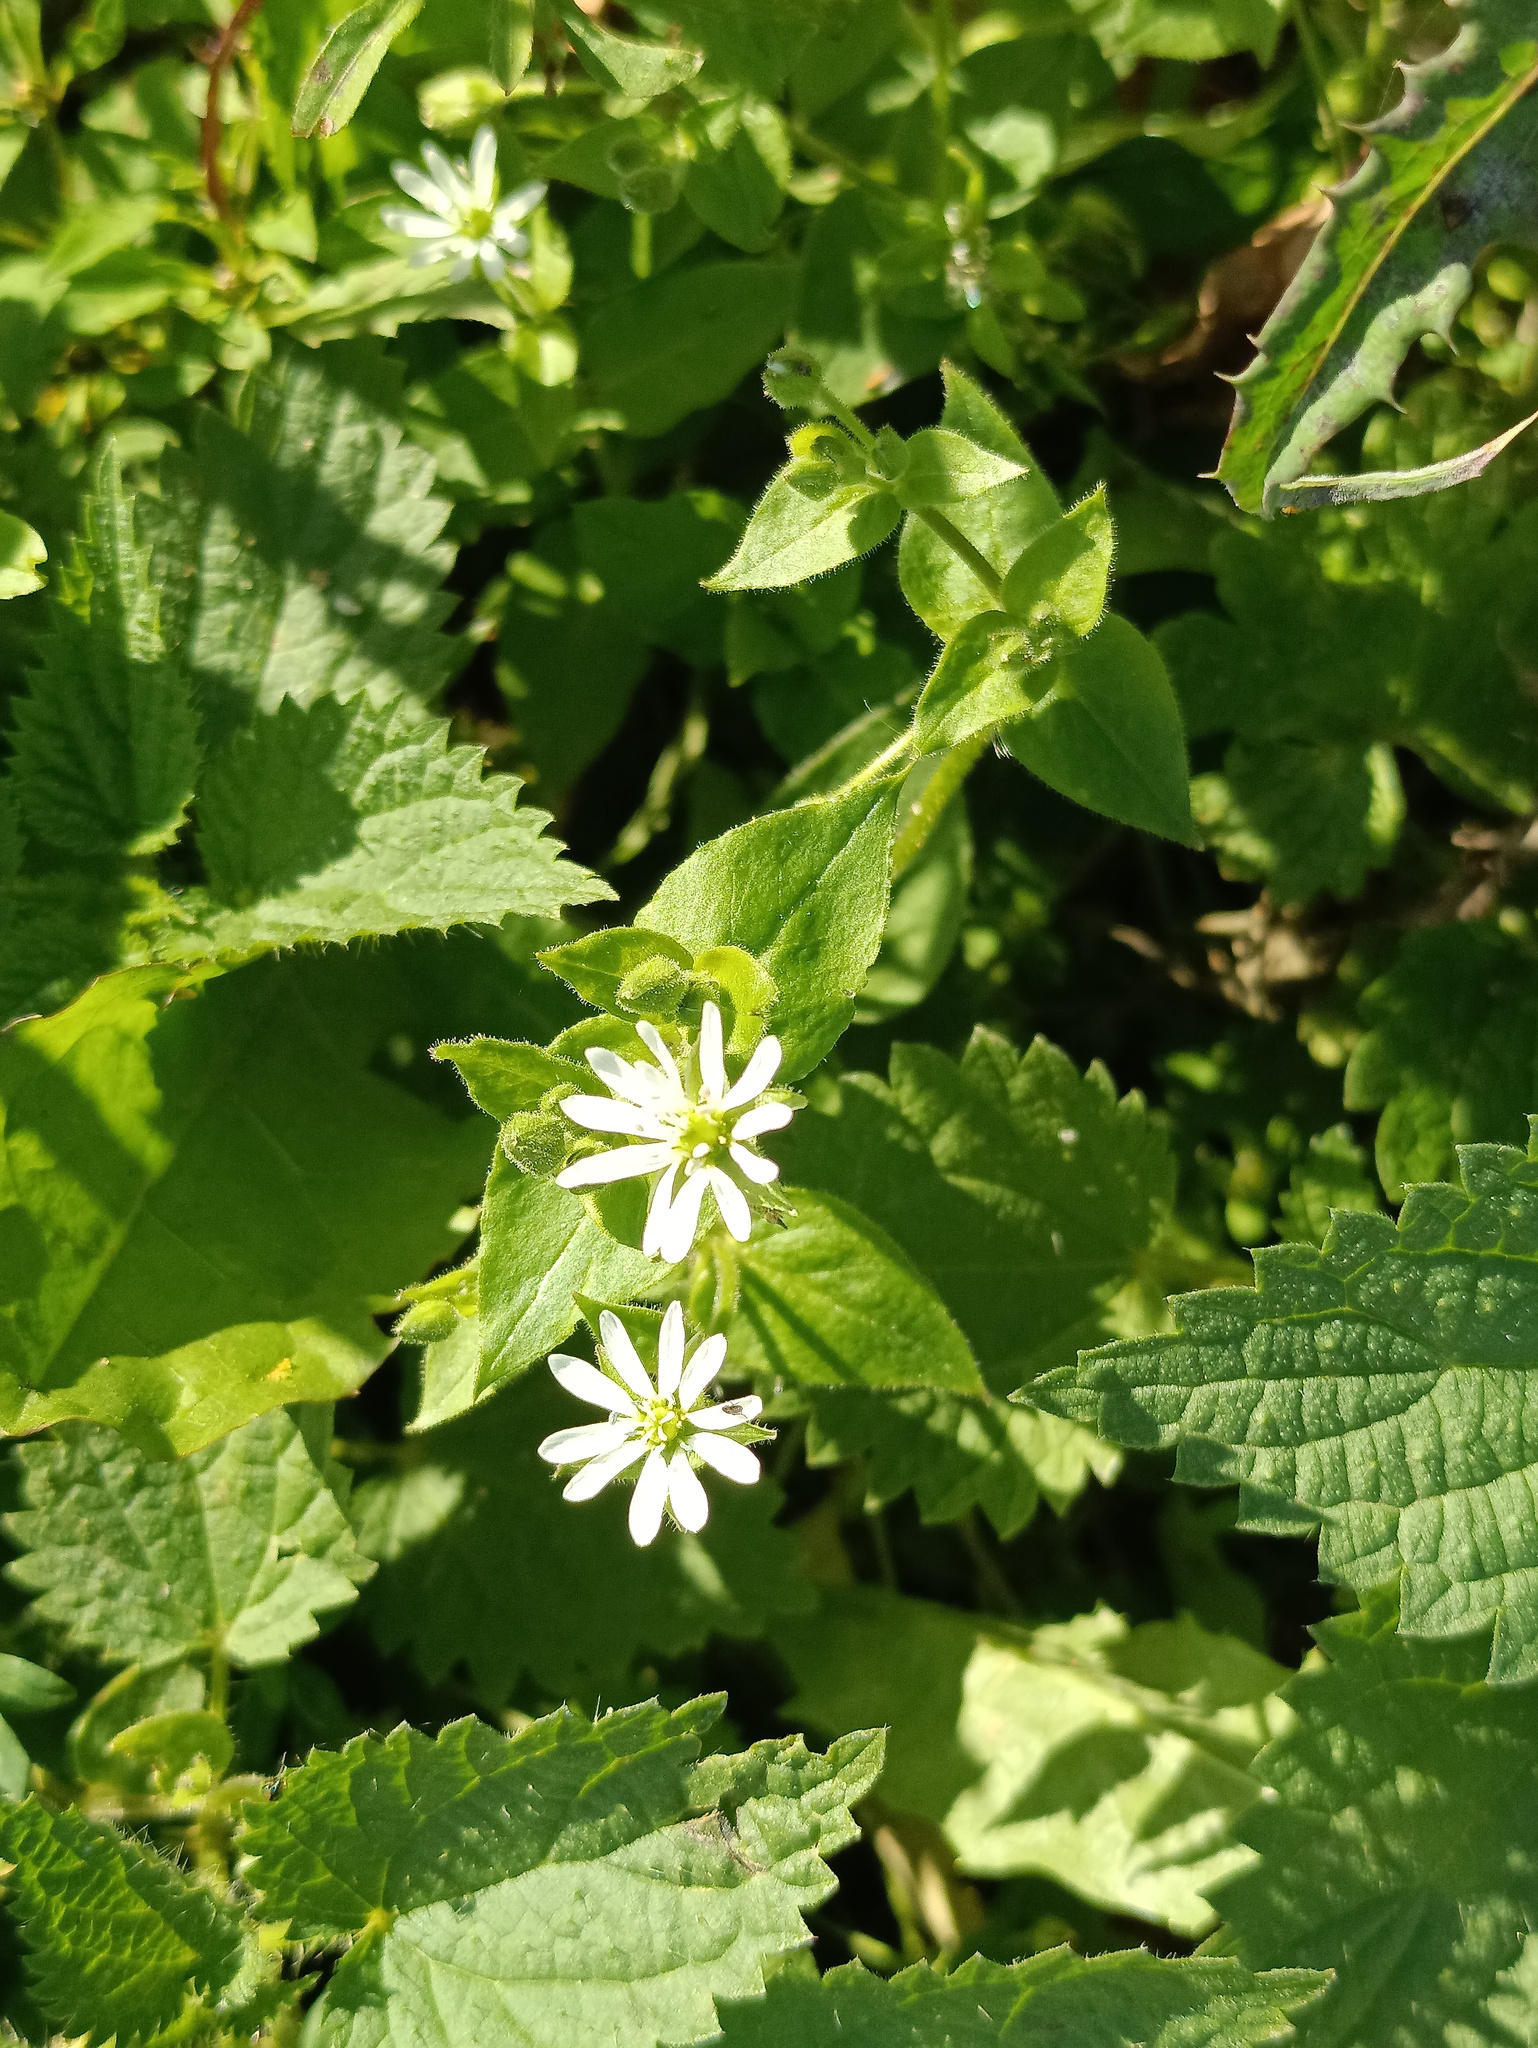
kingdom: Plantae
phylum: Tracheophyta
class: Magnoliopsida
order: Caryophyllales
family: Caryophyllaceae
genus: Stellaria
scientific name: Stellaria aquatica
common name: Water chickweed
